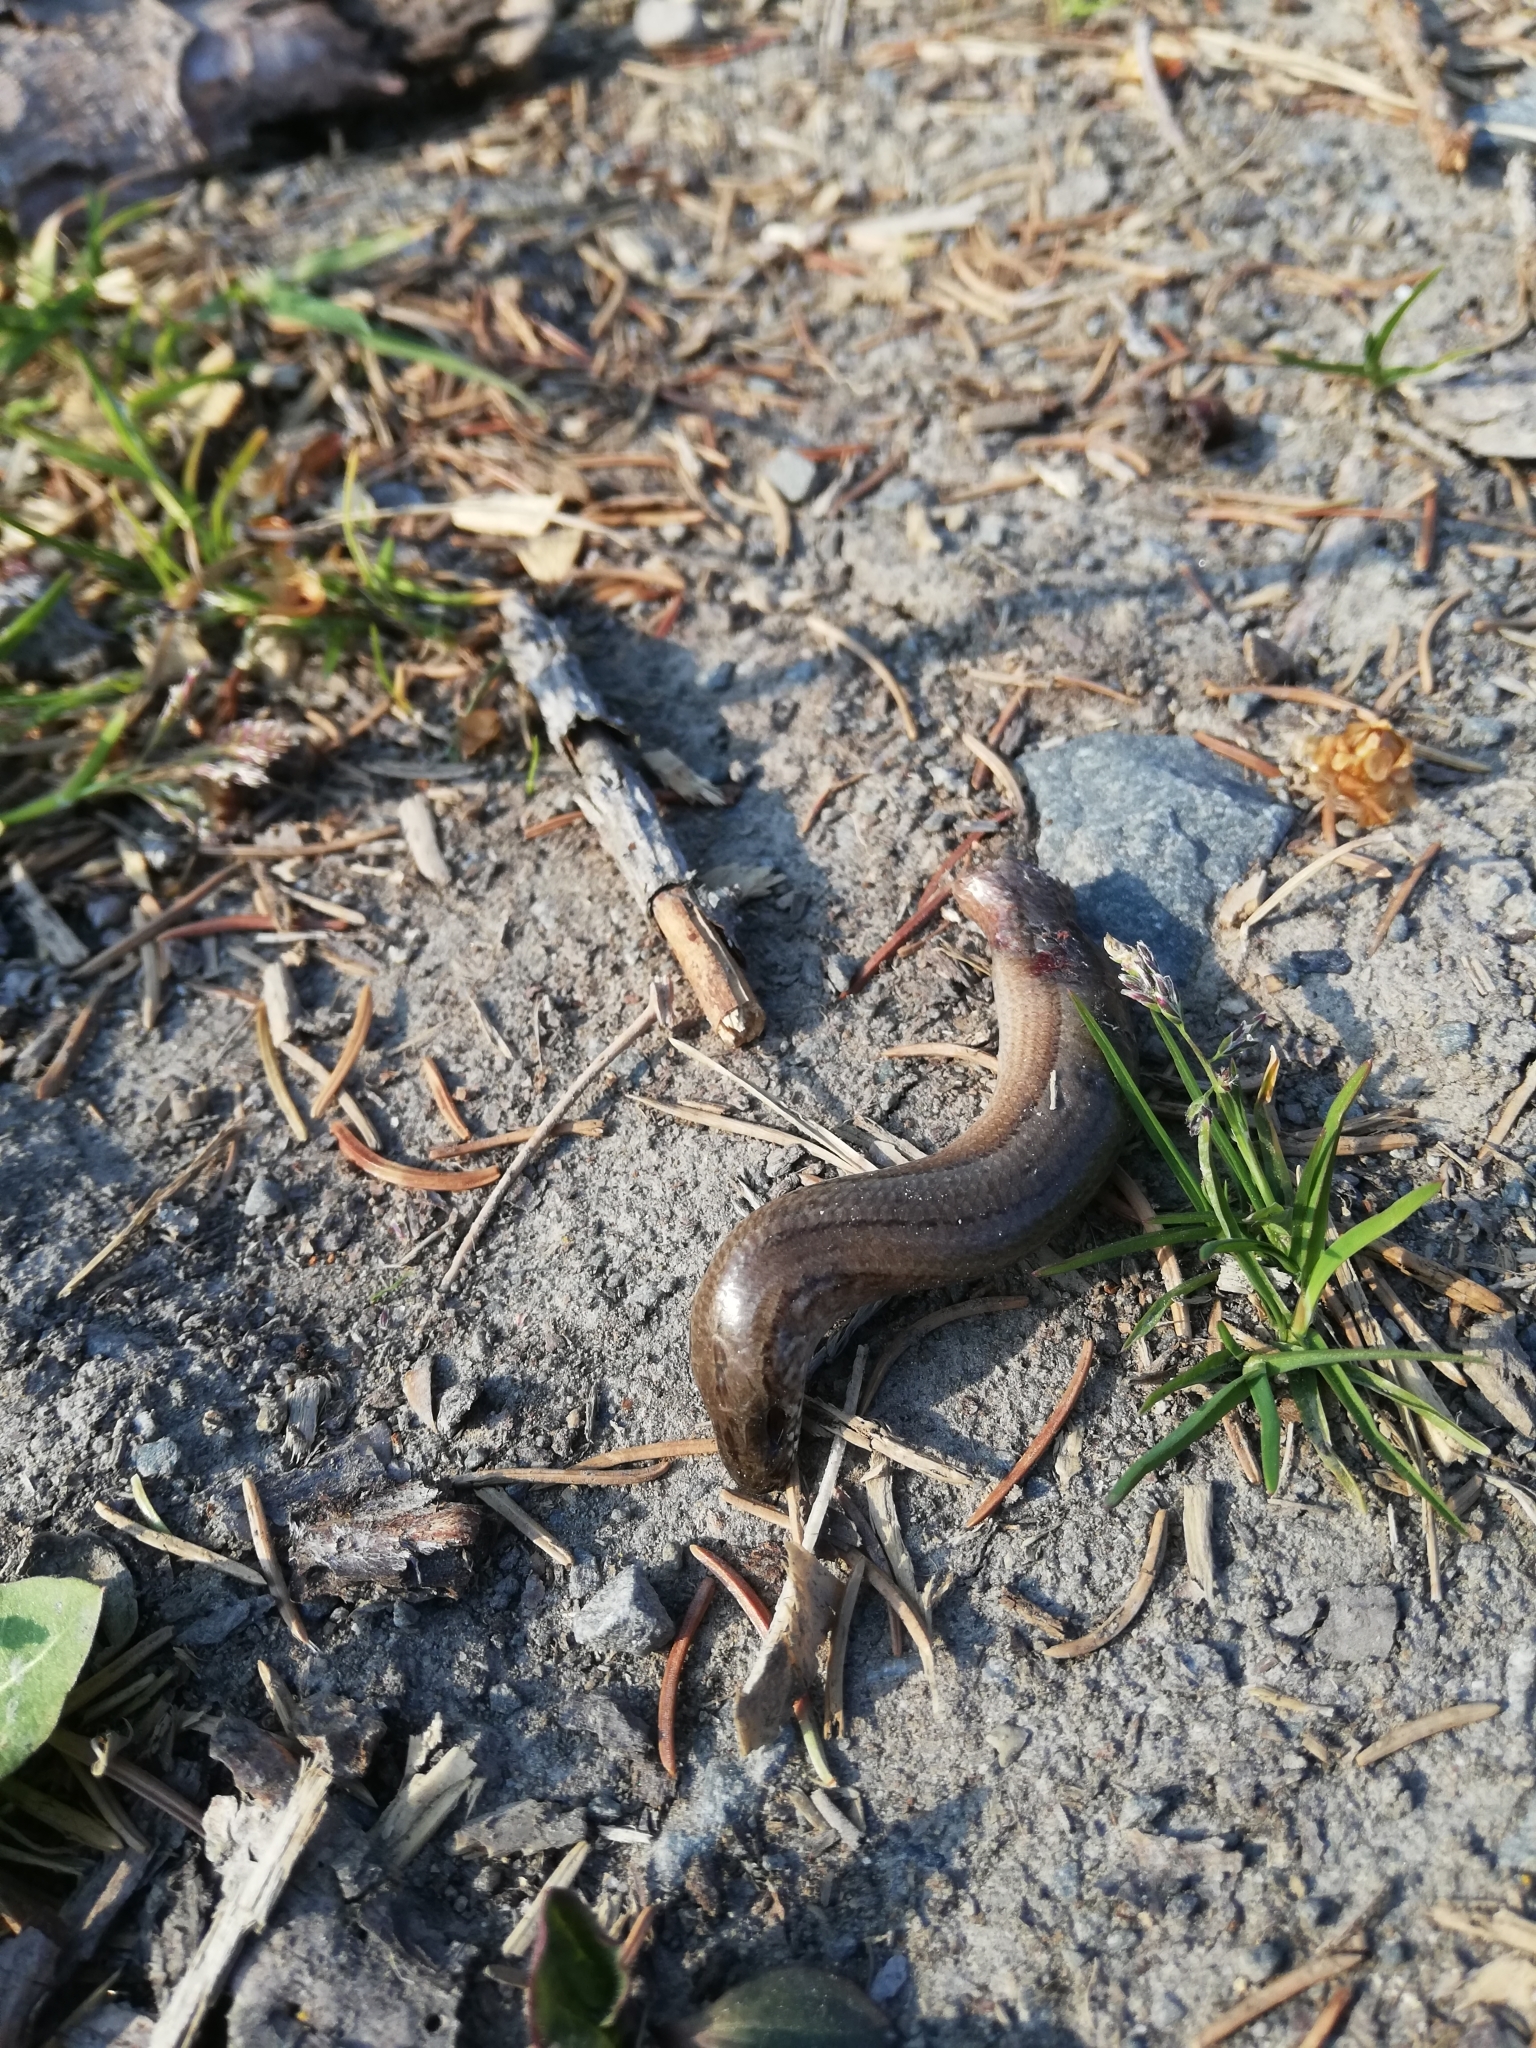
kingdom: Animalia
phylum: Chordata
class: Squamata
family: Anguidae
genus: Anguis
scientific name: Anguis fragilis
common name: Slow worm
